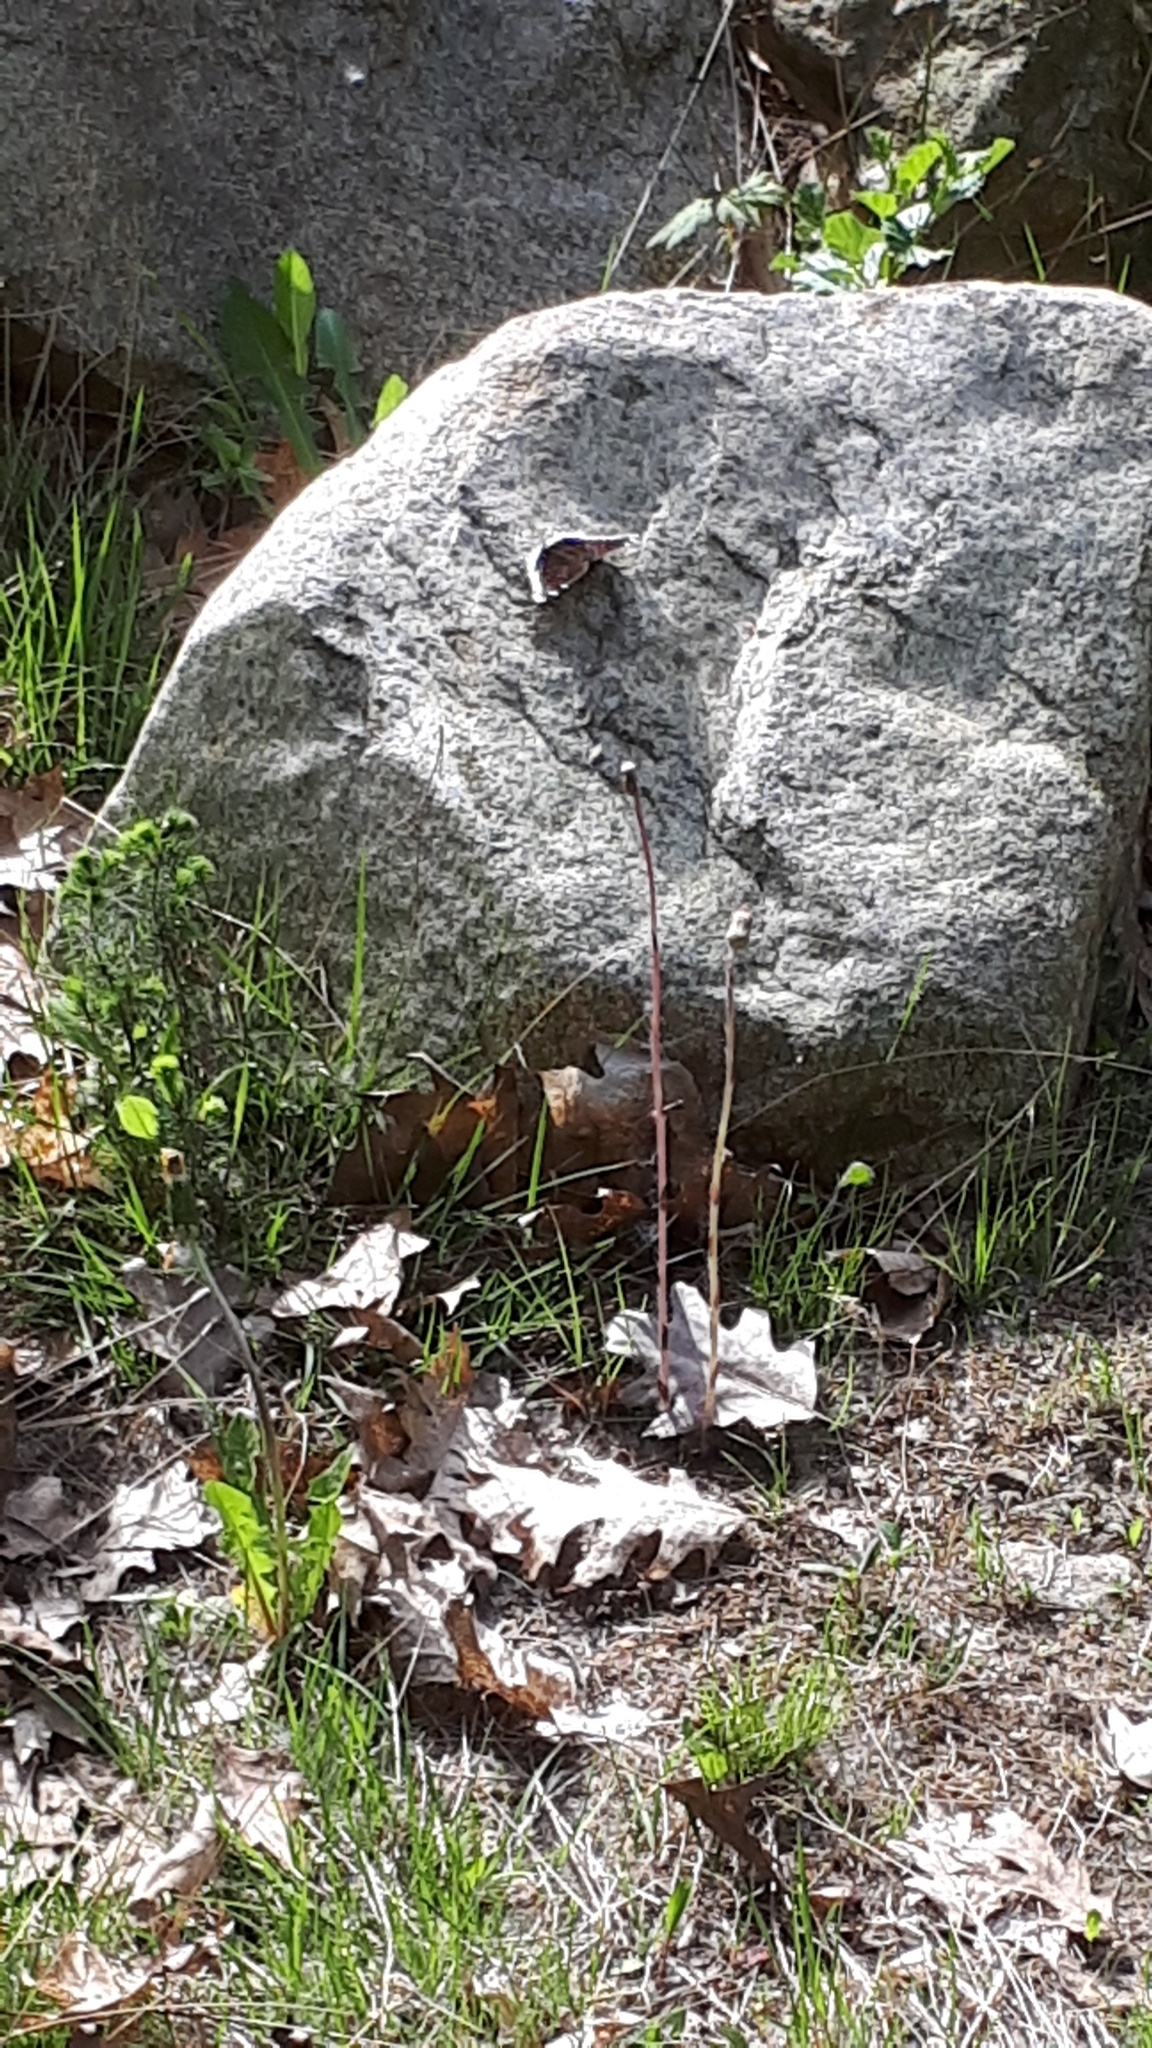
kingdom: Animalia
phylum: Arthropoda
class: Insecta
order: Lepidoptera
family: Nymphalidae
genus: Nymphalis
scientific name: Nymphalis antiopa
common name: Camberwell beauty
